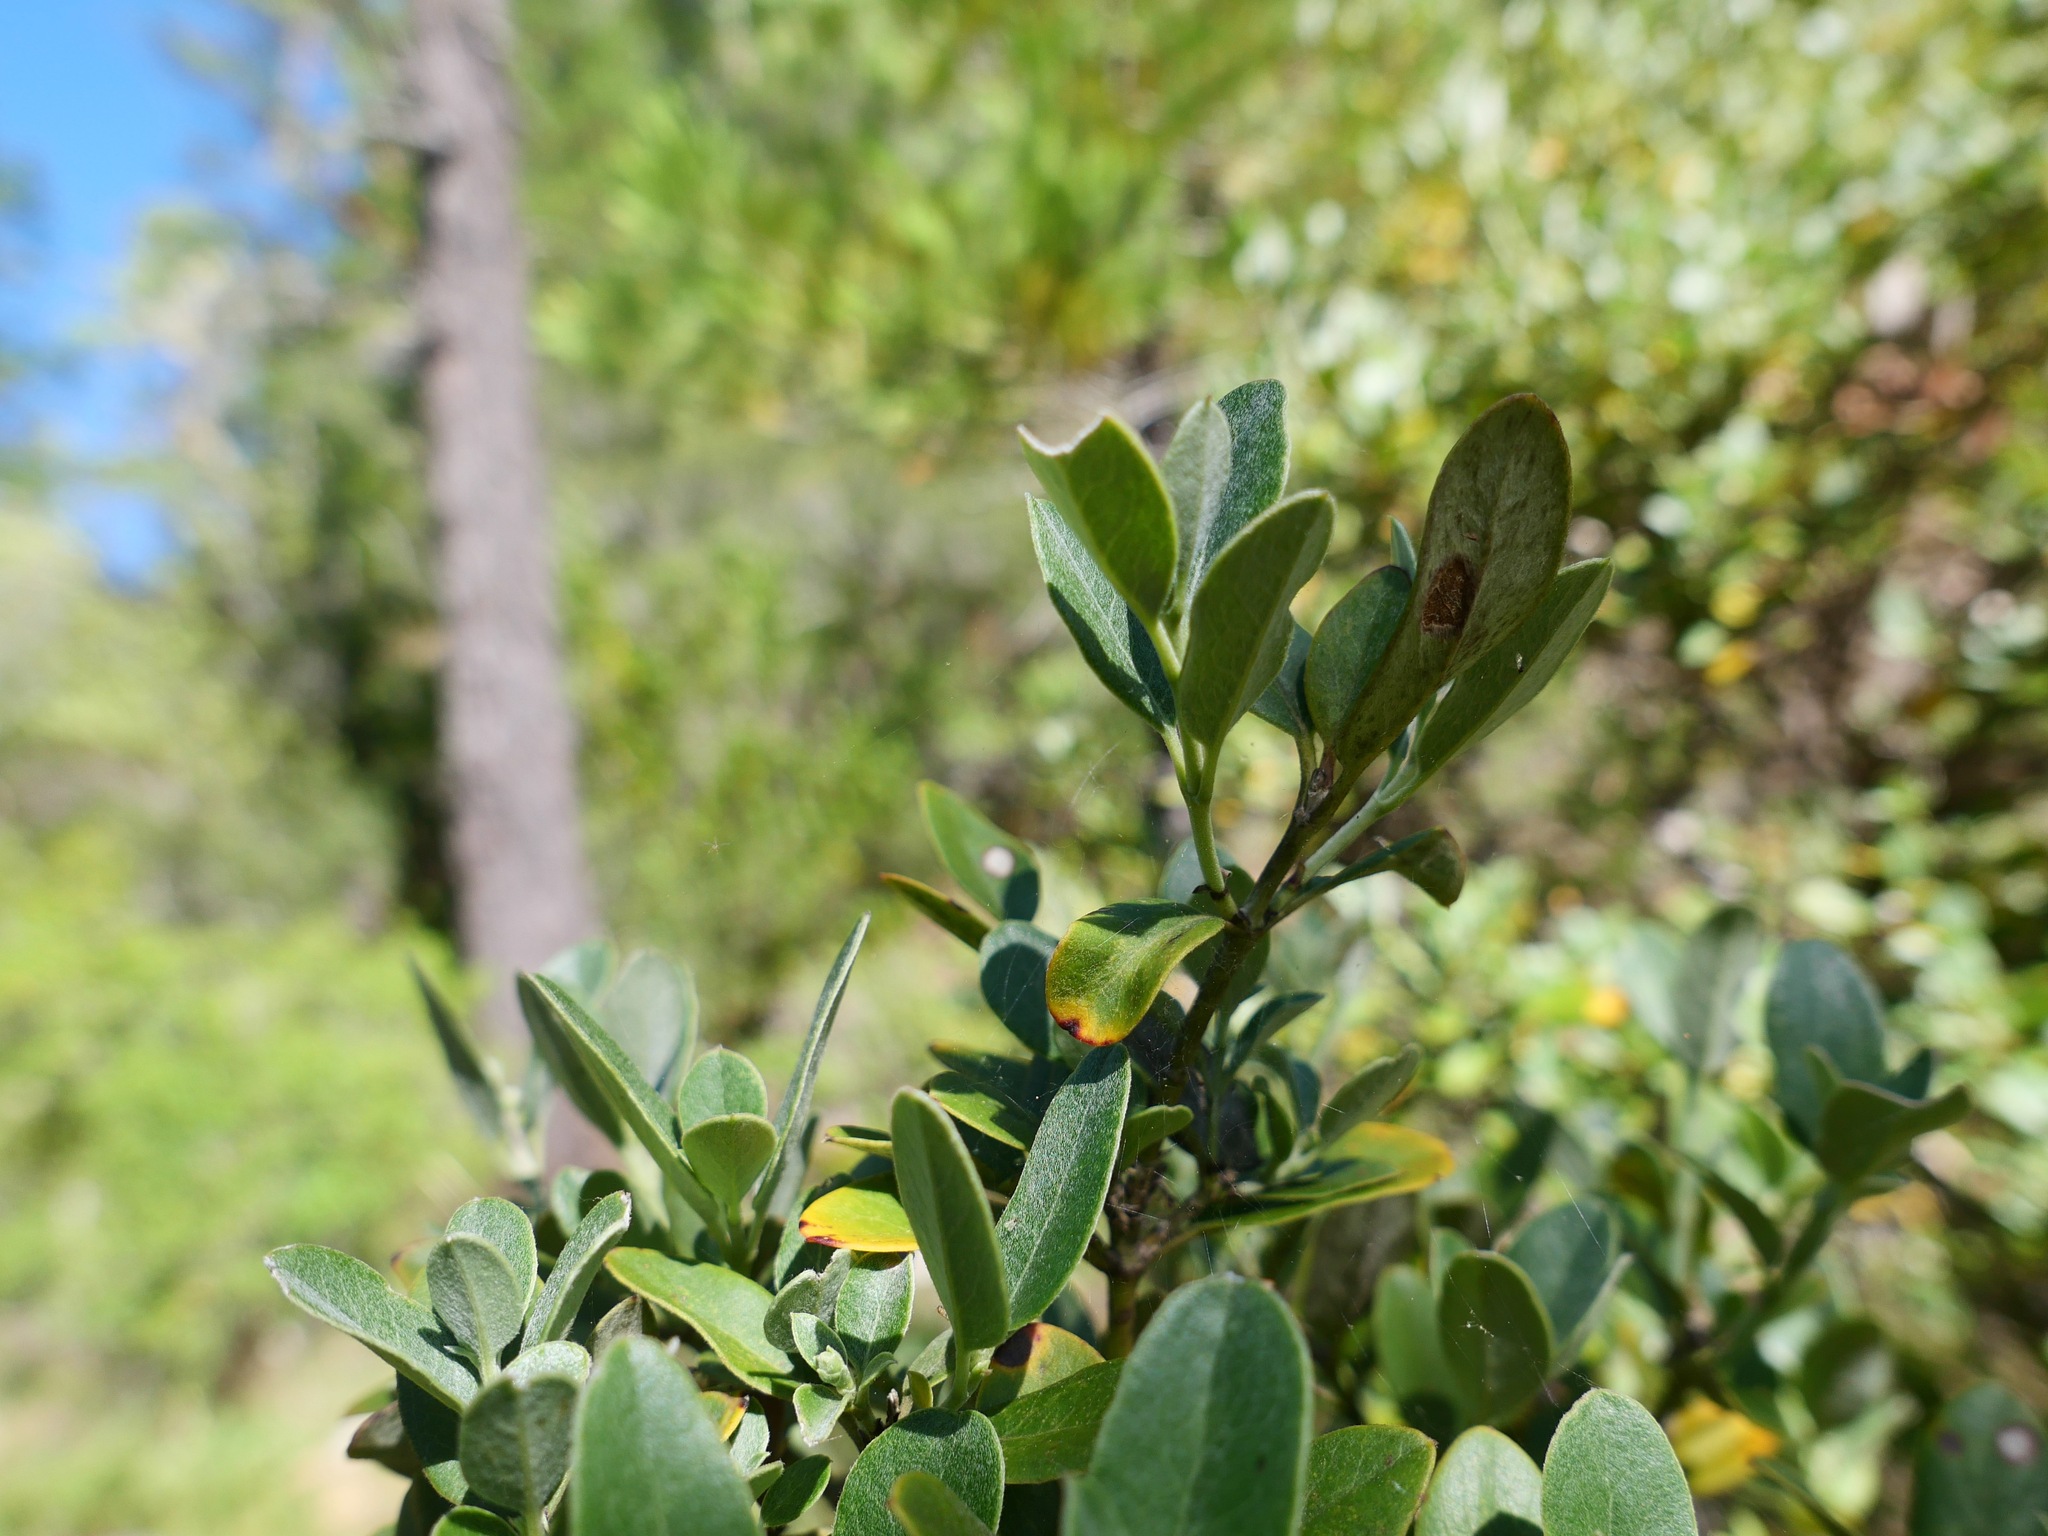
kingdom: Plantae
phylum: Tracheophyta
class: Magnoliopsida
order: Garryales
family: Garryaceae
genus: Garrya
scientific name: Garrya buxifolia
